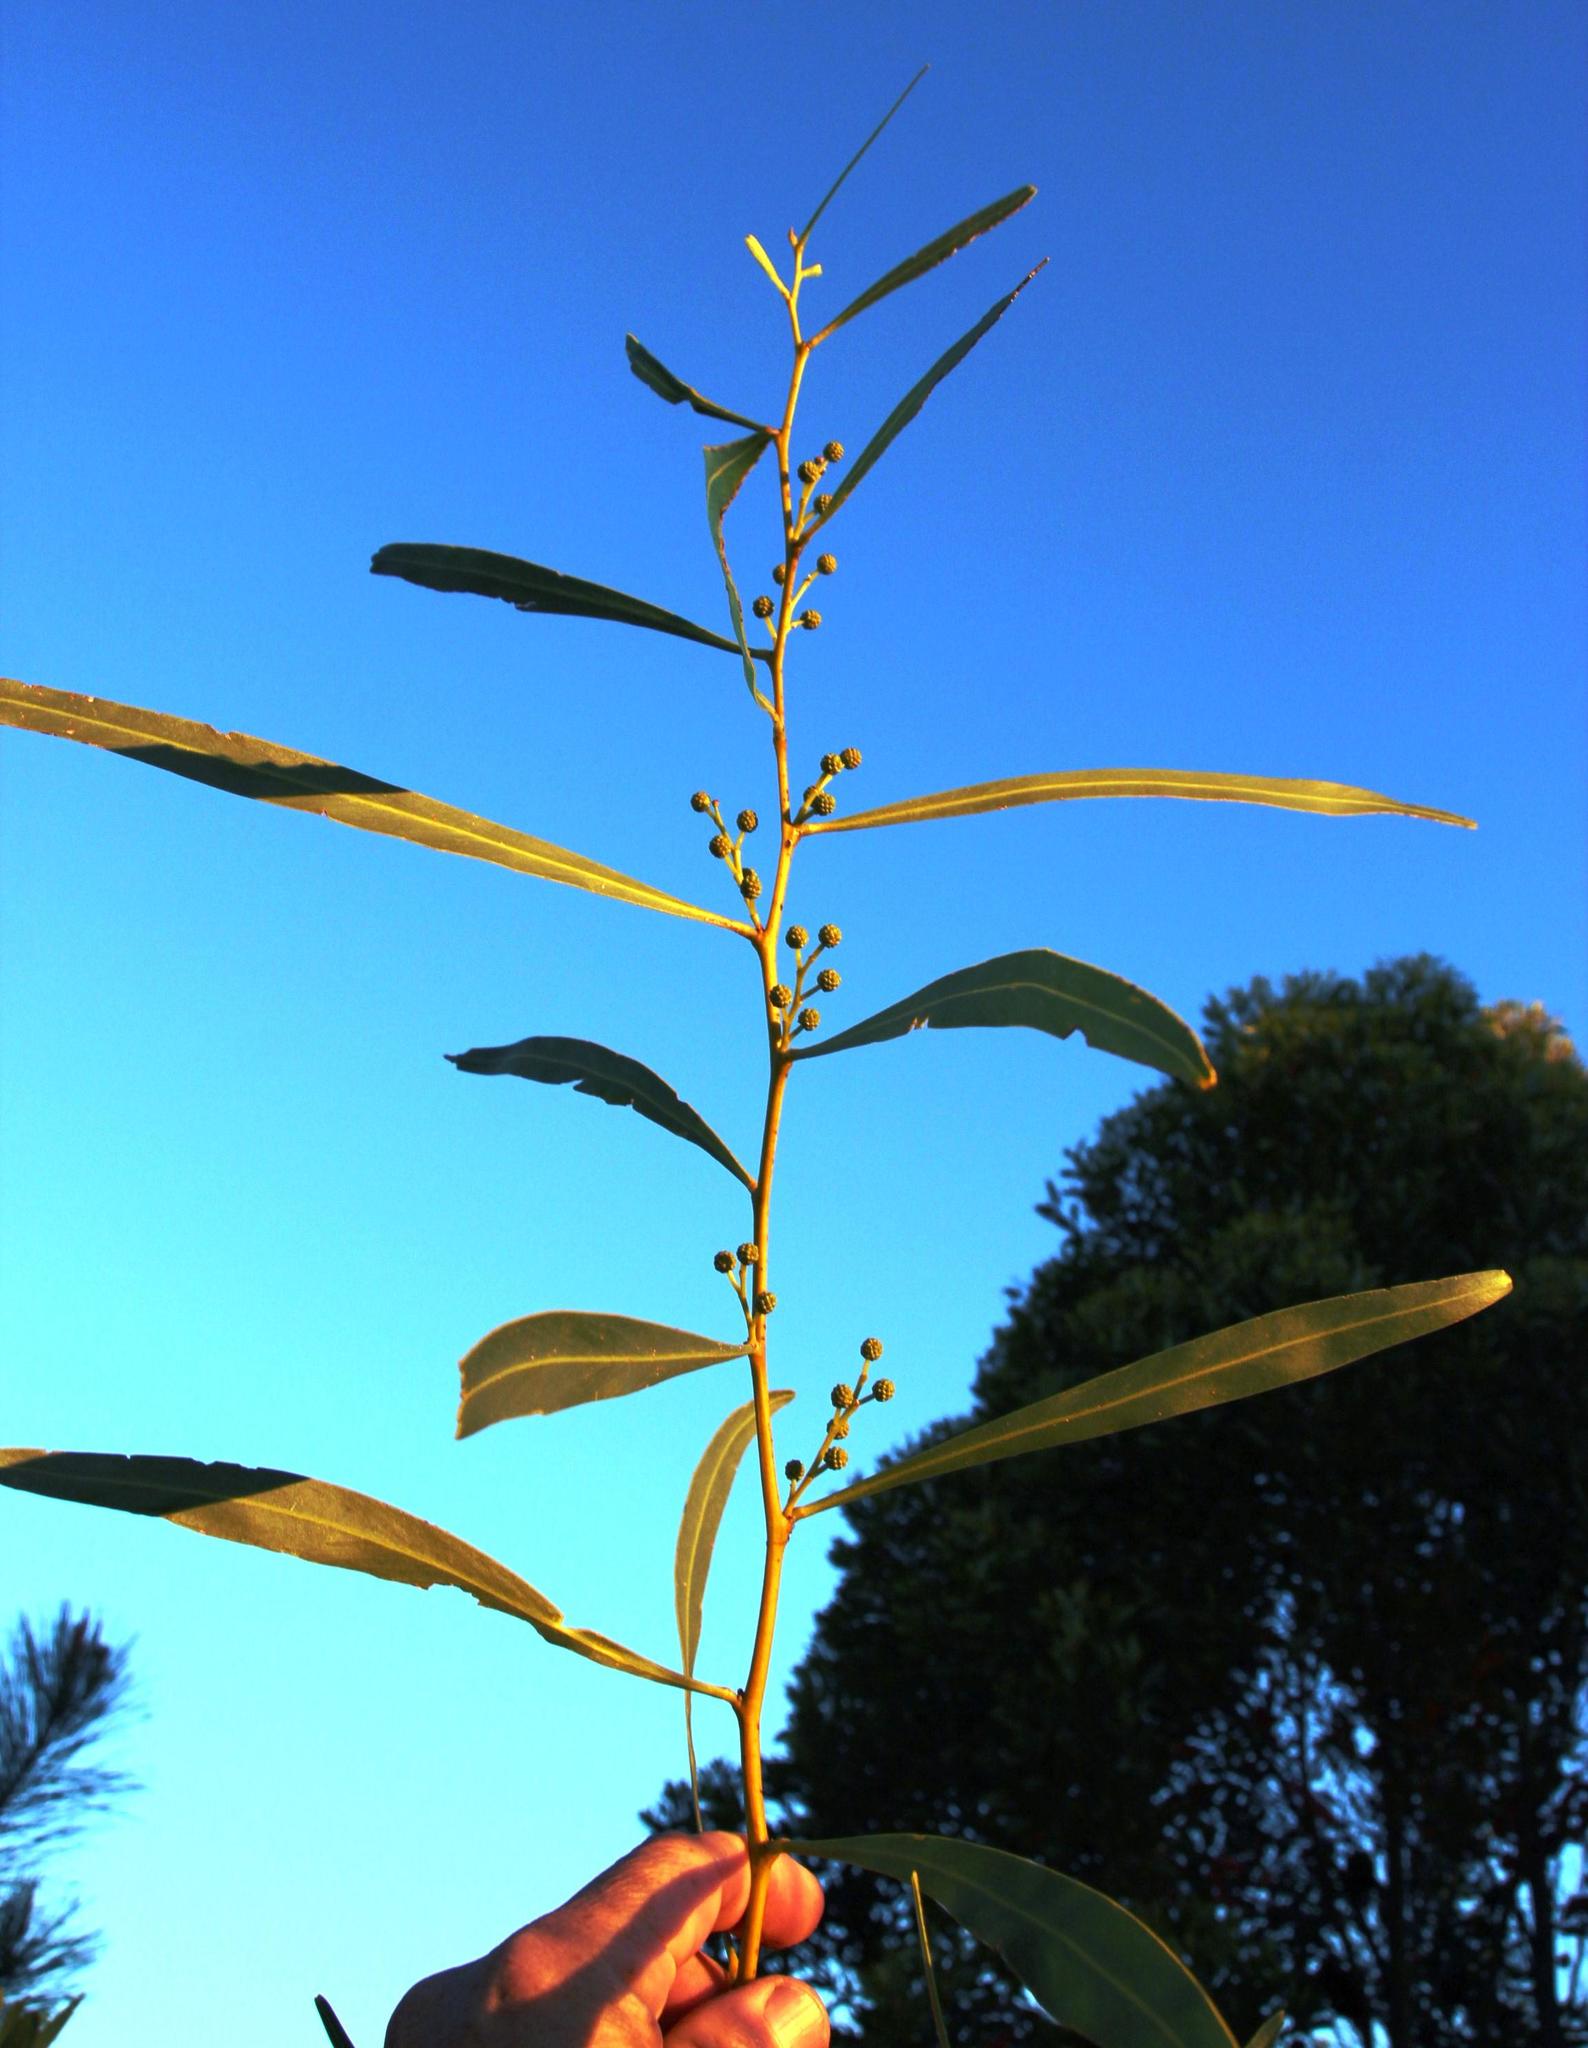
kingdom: Plantae
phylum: Tracheophyta
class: Magnoliopsida
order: Fabales
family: Fabaceae
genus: Acacia
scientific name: Acacia saligna
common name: Orange wattle
